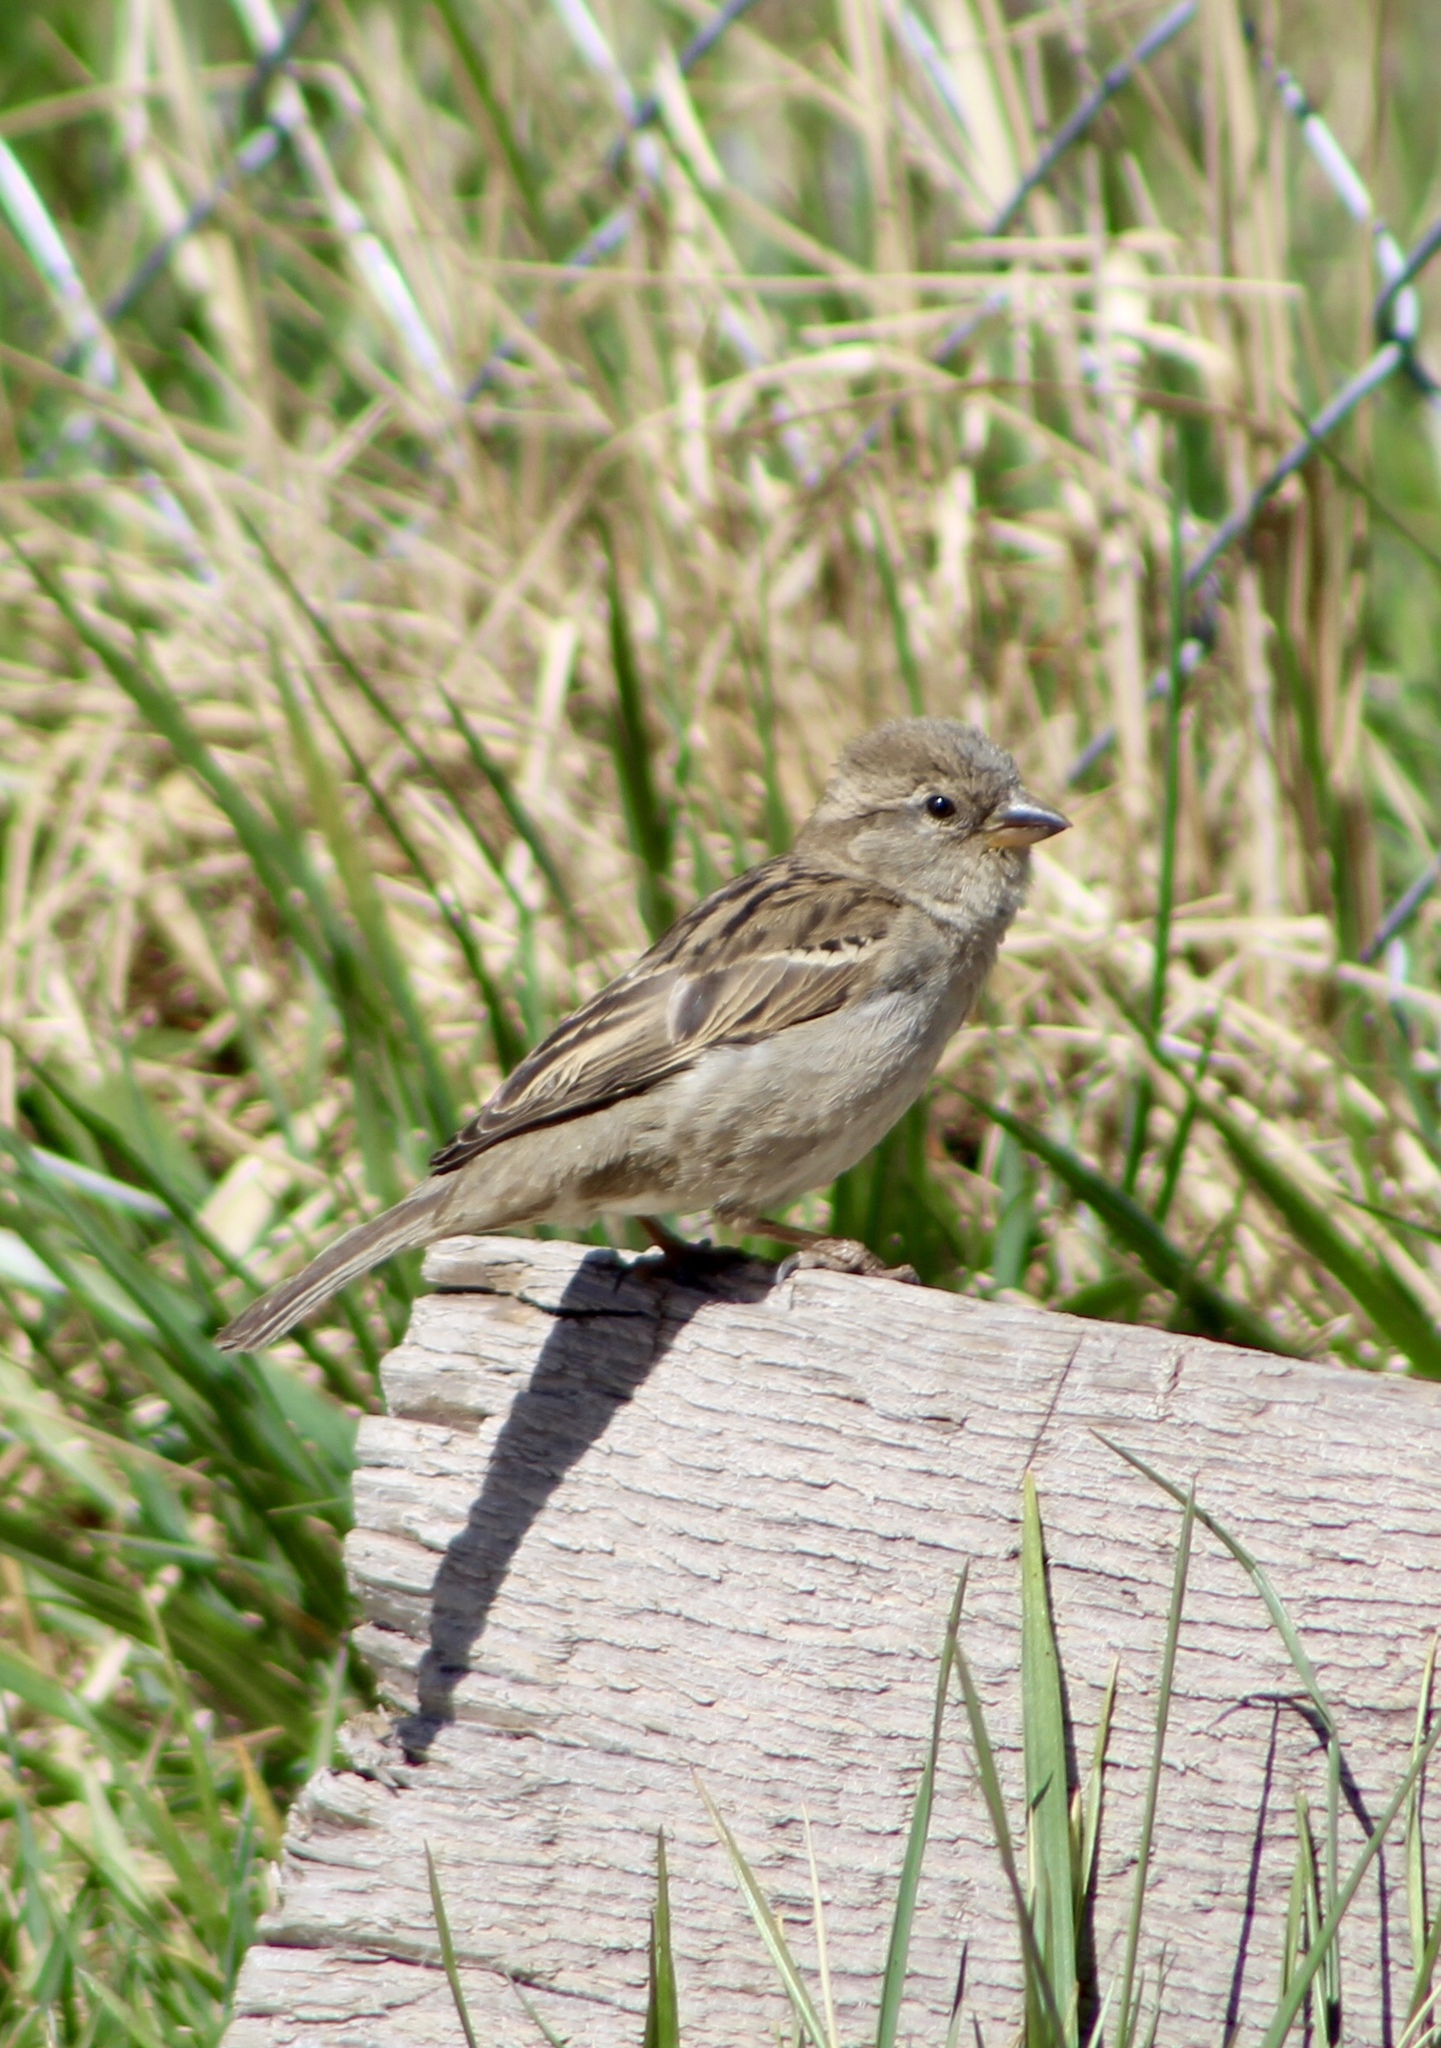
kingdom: Animalia
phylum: Chordata
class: Aves
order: Passeriformes
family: Passeridae
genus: Passer
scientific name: Passer domesticus
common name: House sparrow
